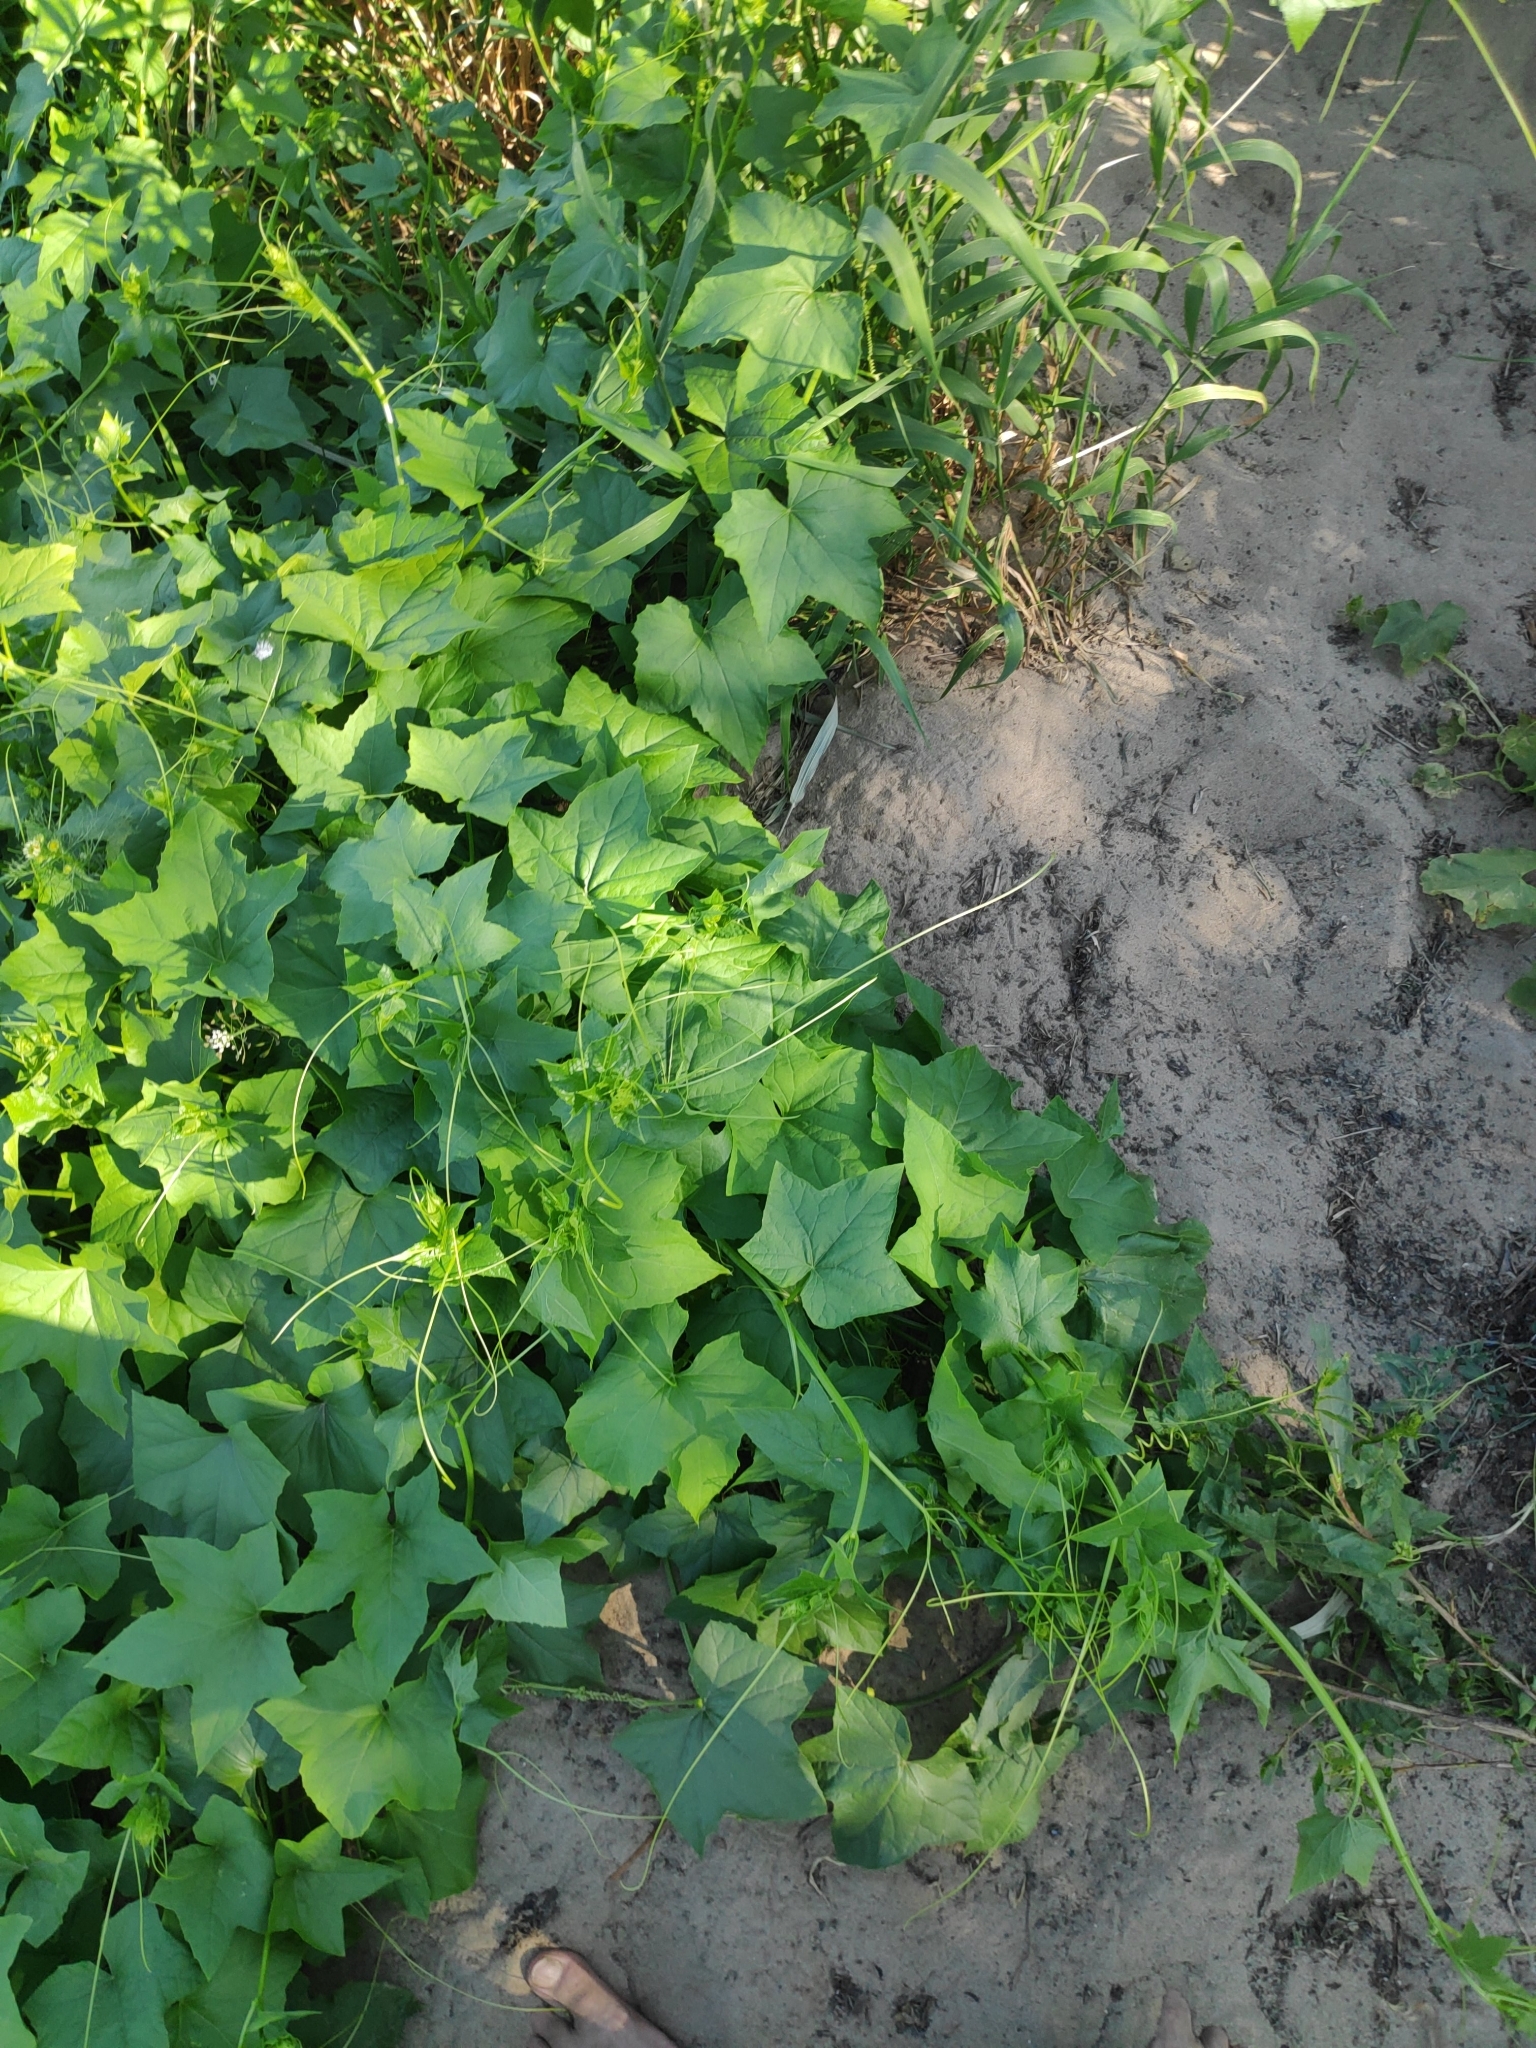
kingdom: Plantae
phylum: Tracheophyta
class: Magnoliopsida
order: Cucurbitales
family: Cucurbitaceae
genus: Echinocystis
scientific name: Echinocystis lobata
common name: Wild cucumber
